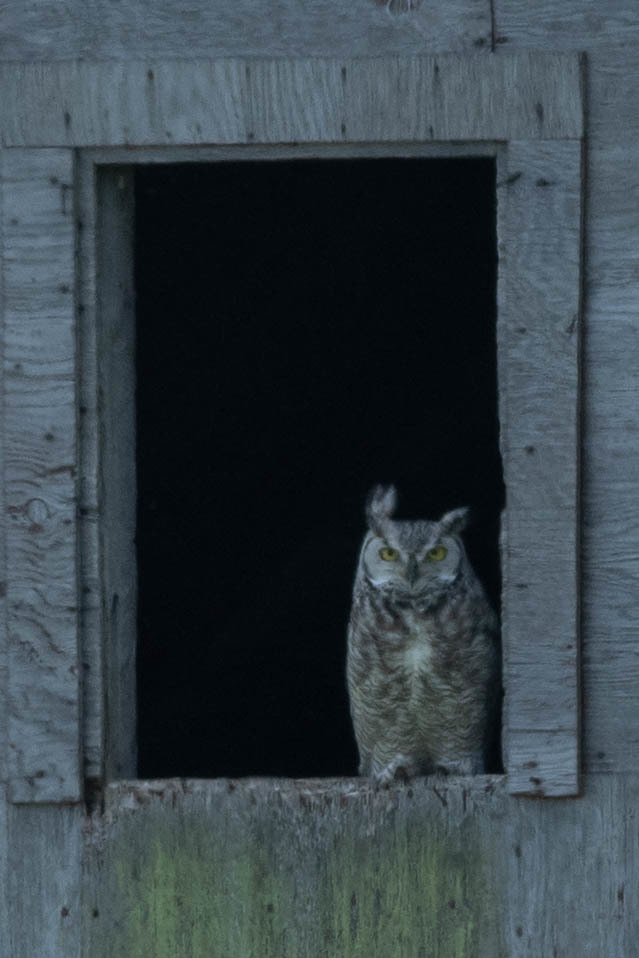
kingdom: Animalia
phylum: Chordata
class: Aves
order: Strigiformes
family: Strigidae
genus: Bubo
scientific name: Bubo virginianus
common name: Great horned owl
